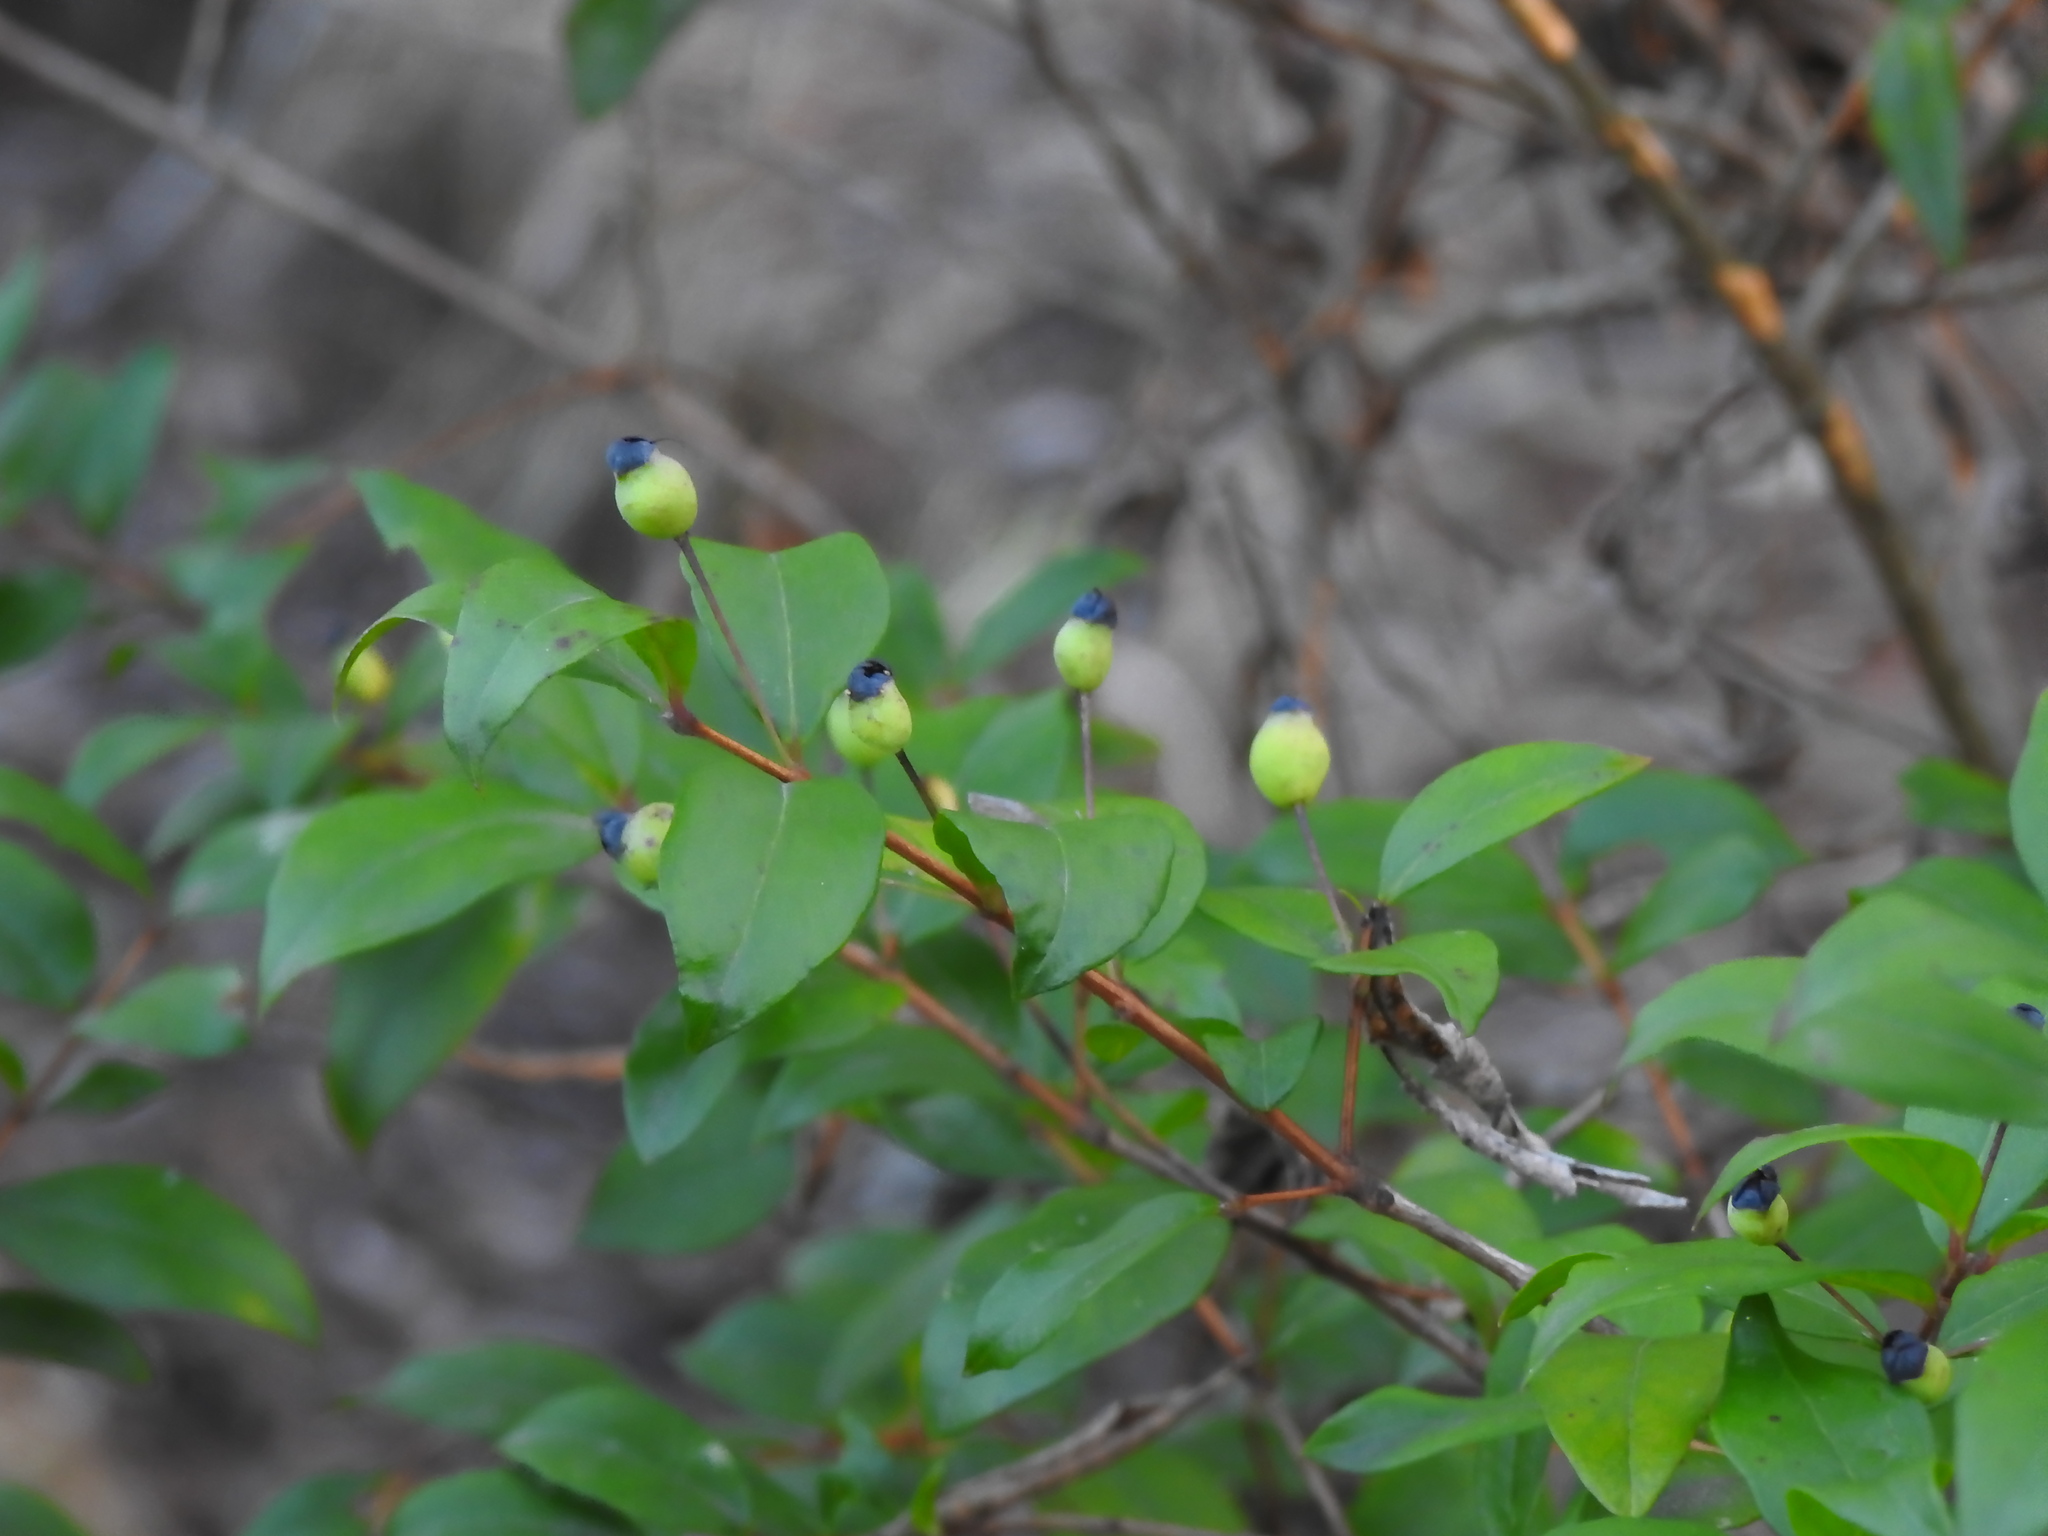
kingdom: Plantae
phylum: Tracheophyta
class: Magnoliopsida
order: Myrtales
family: Myrtaceae
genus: Myrtus
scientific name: Myrtus communis
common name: Myrtle
